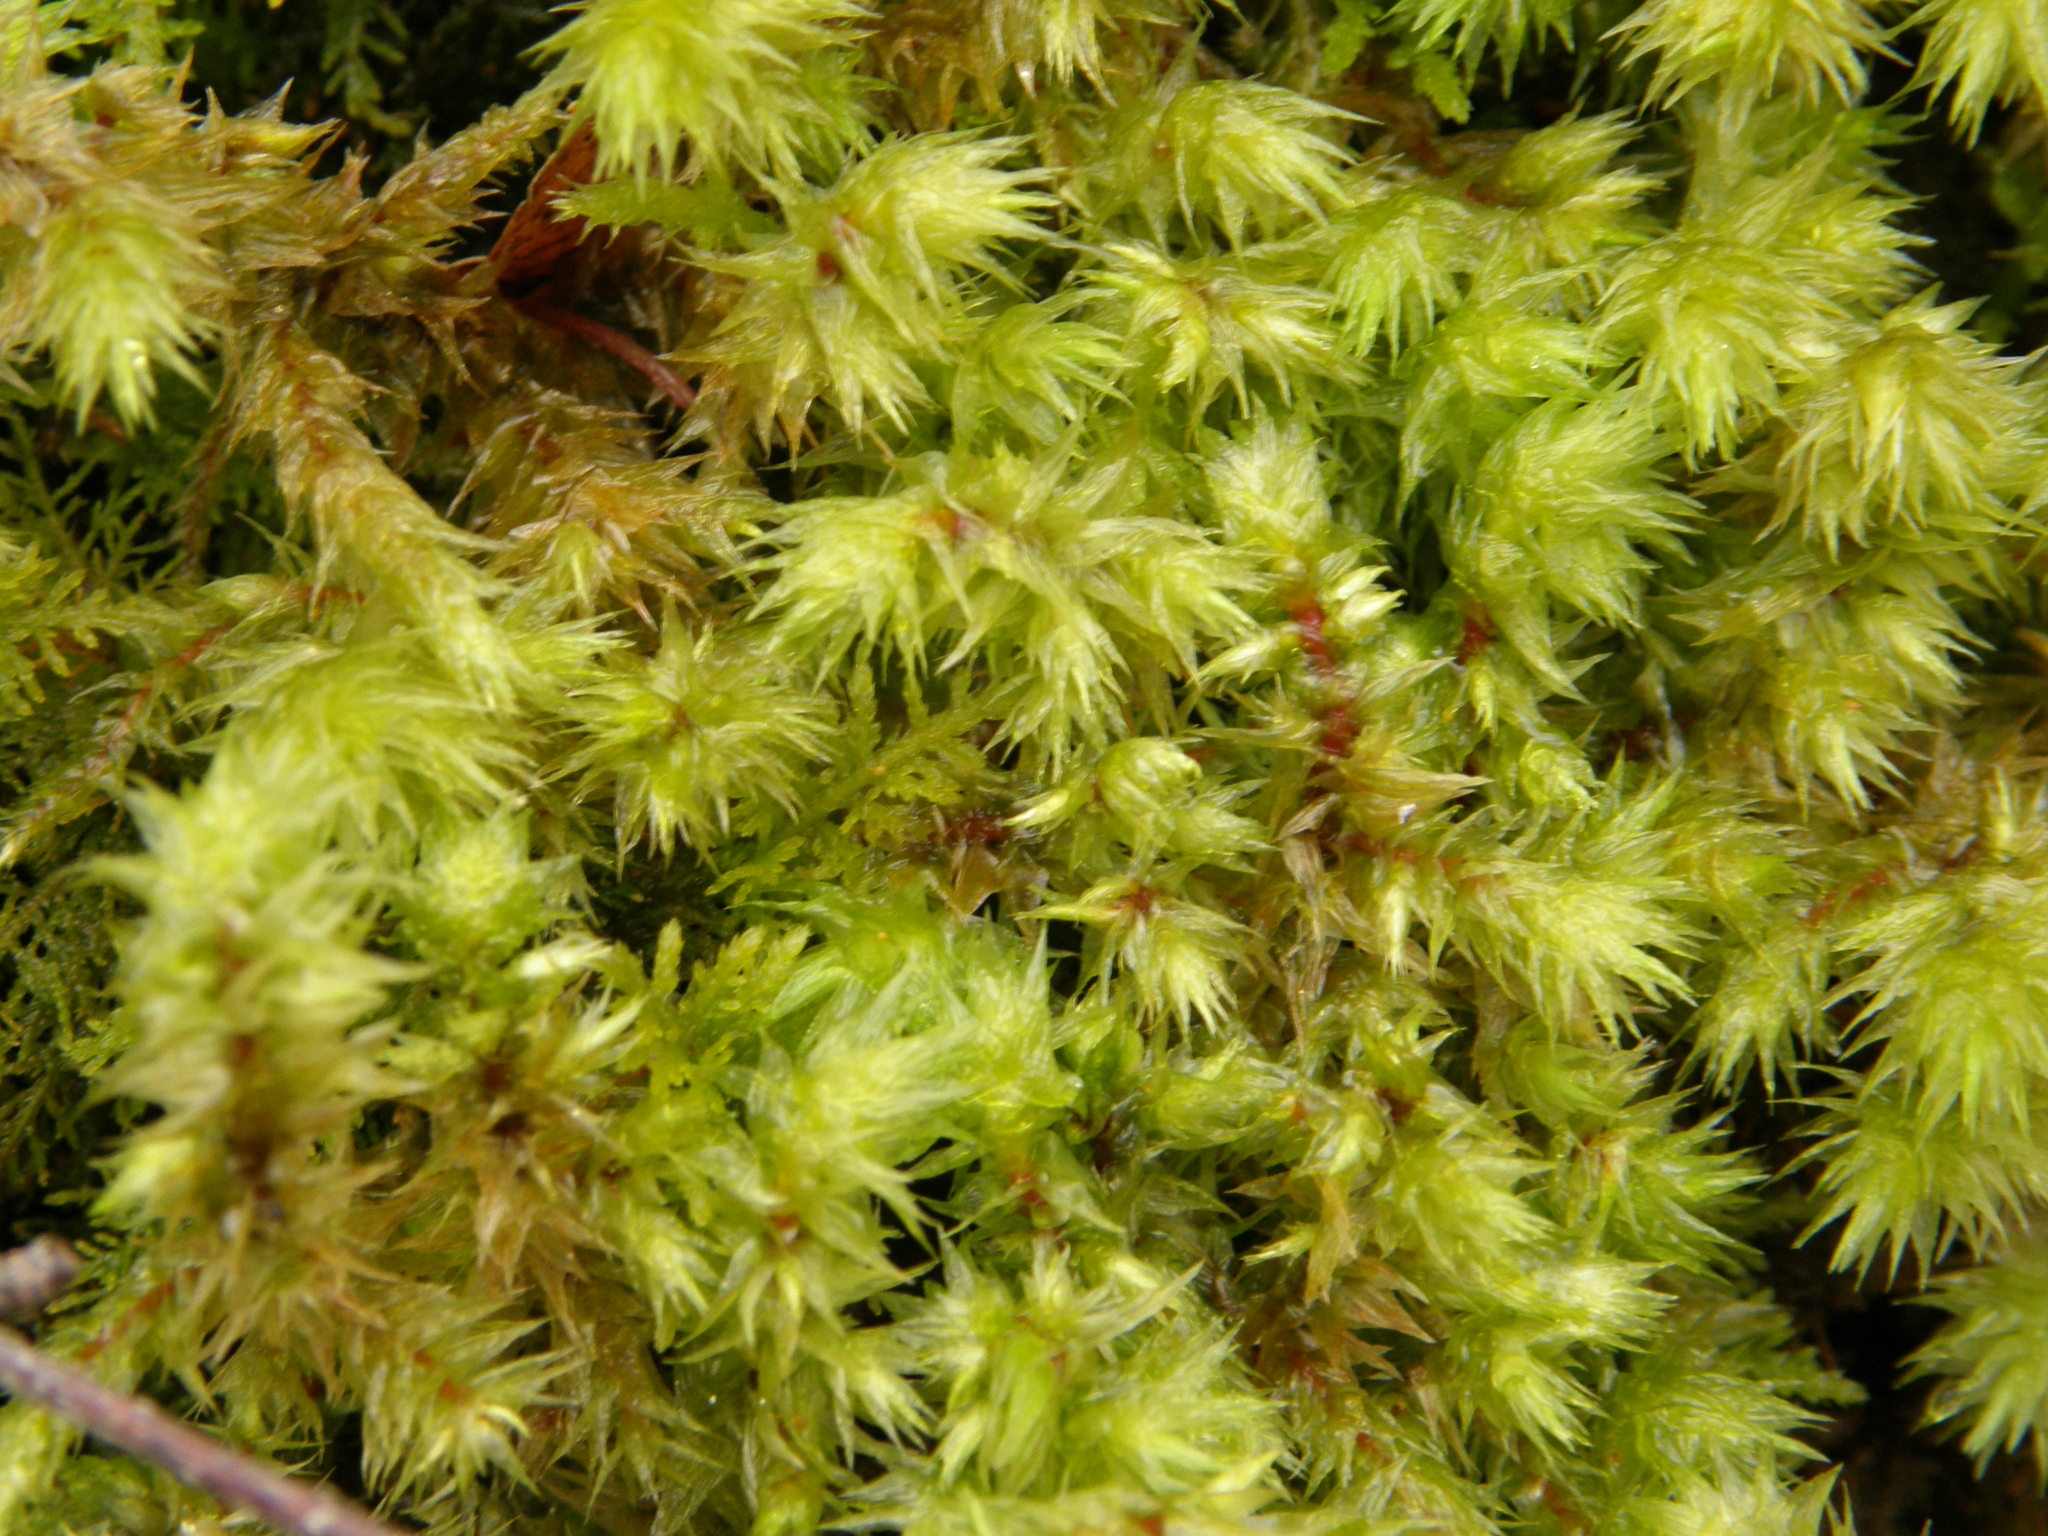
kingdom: Plantae
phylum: Bryophyta
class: Bryopsida
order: Hypnales
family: Hylocomiaceae
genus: Hylocomiadelphus
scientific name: Hylocomiadelphus triquetrus
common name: Rough goose neck moss
